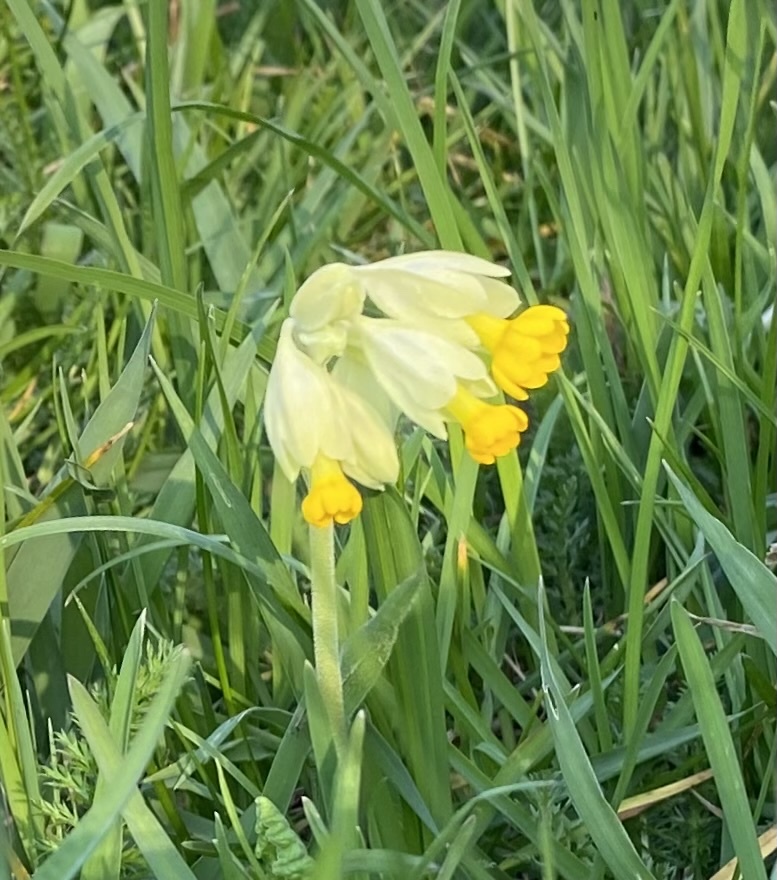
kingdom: Plantae
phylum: Tracheophyta
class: Magnoliopsida
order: Ericales
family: Primulaceae
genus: Primula
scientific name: Primula veris
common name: Cowslip
